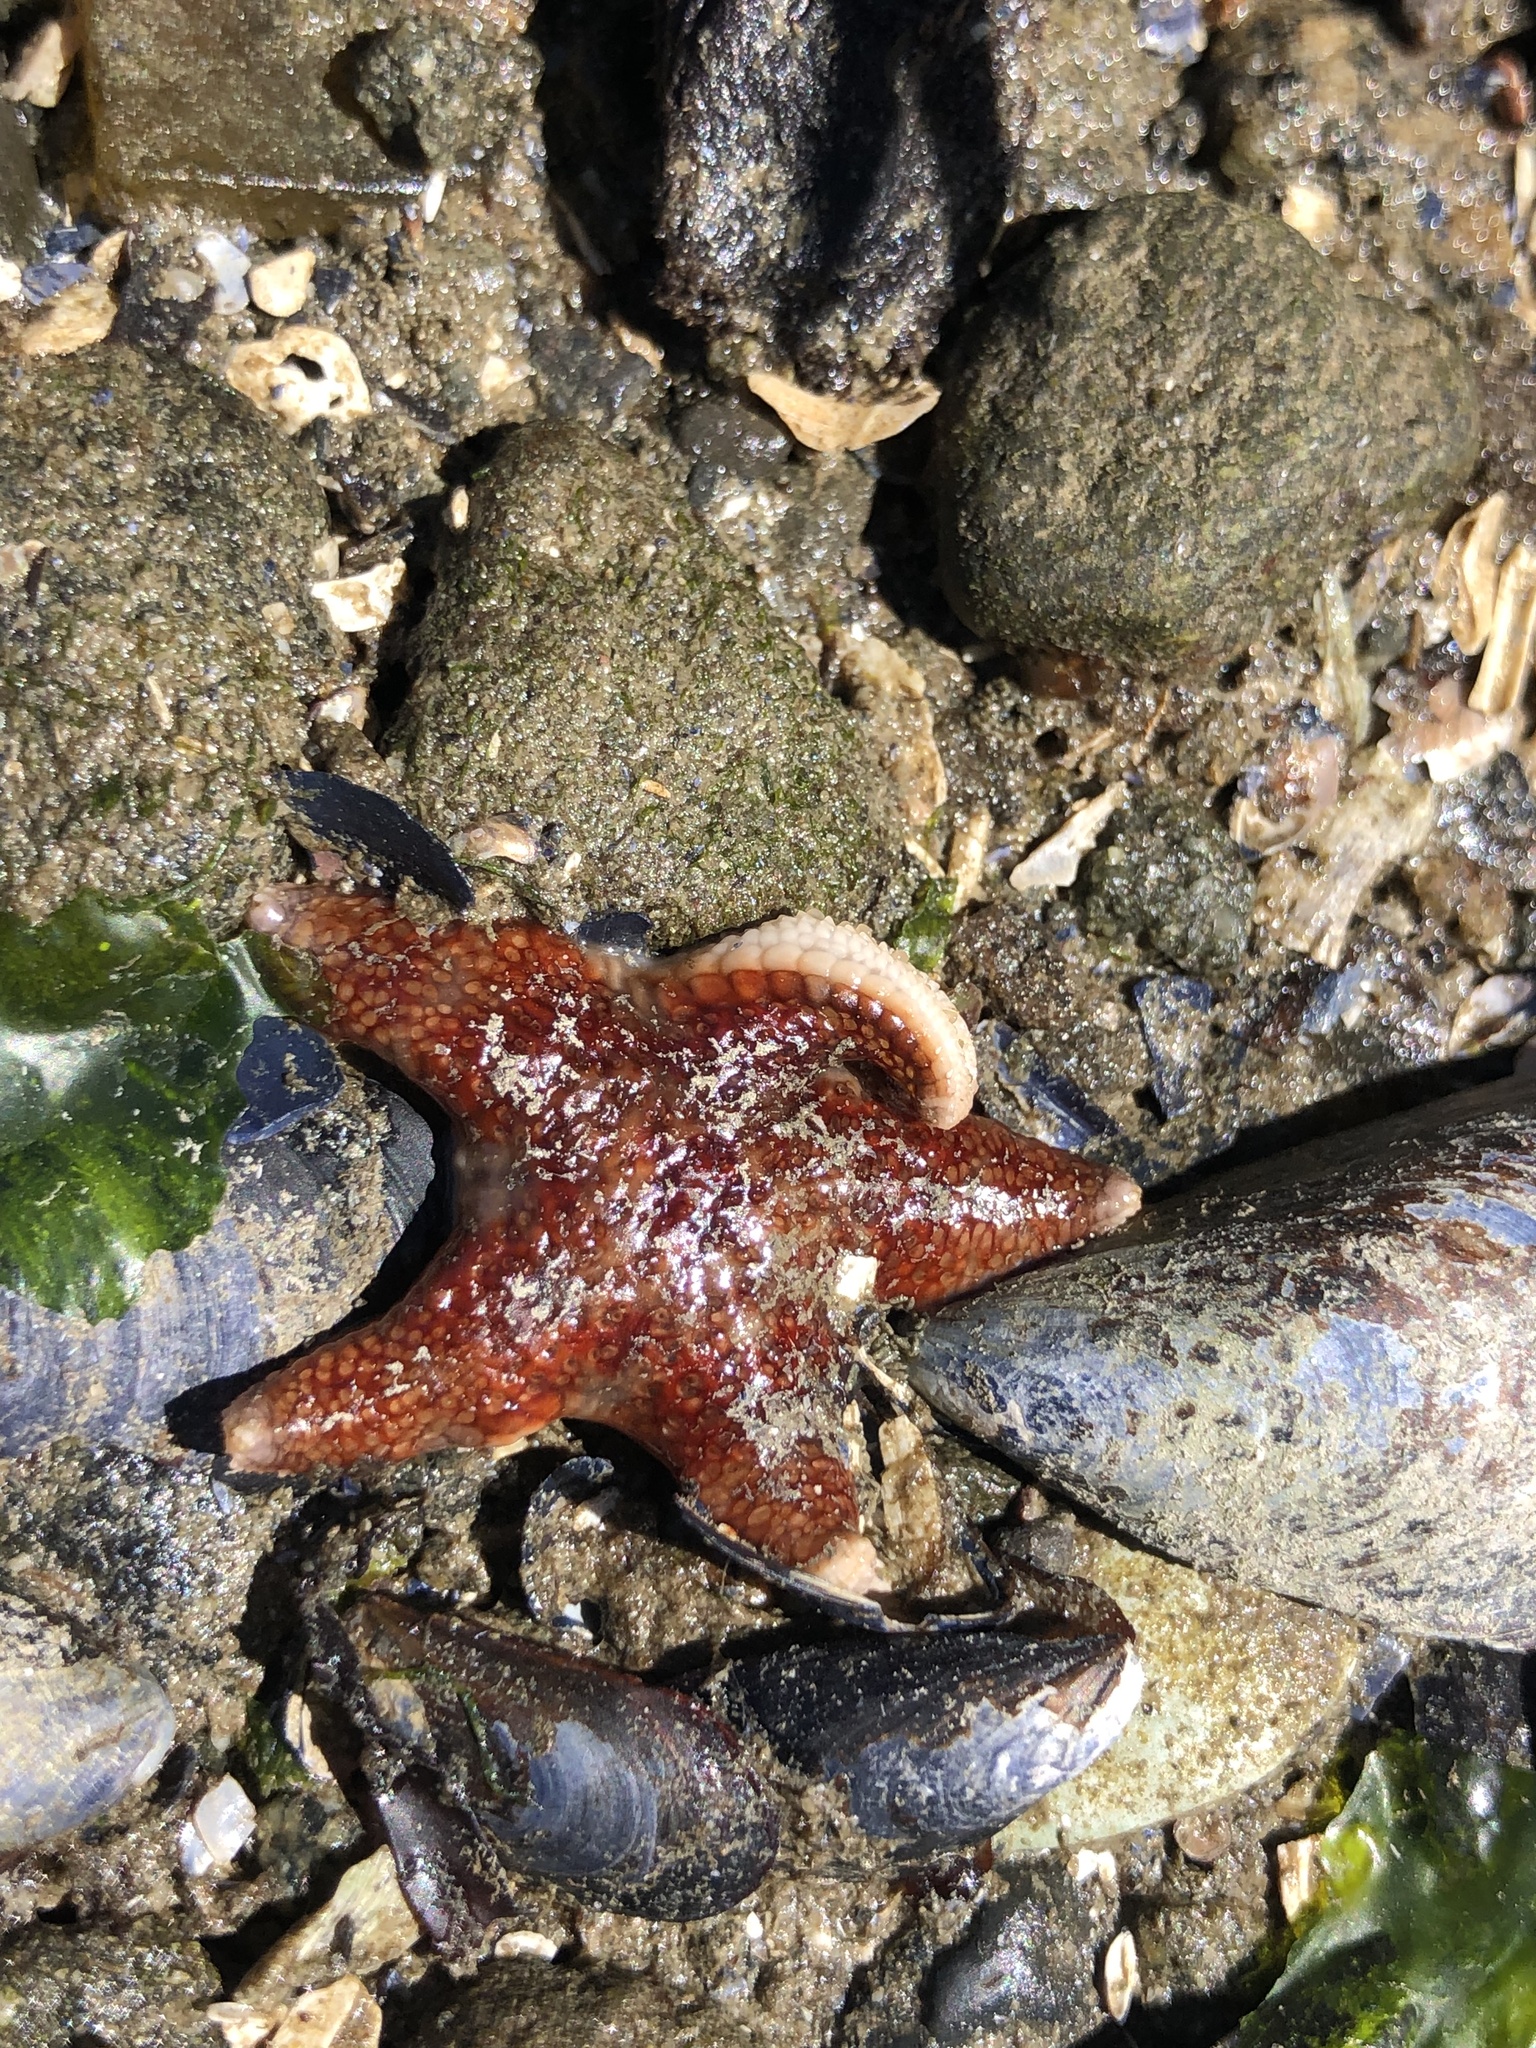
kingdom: Animalia
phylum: Echinodermata
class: Asteroidea
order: Valvatida
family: Asteropseidae
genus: Dermasterias
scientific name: Dermasterias imbricata
